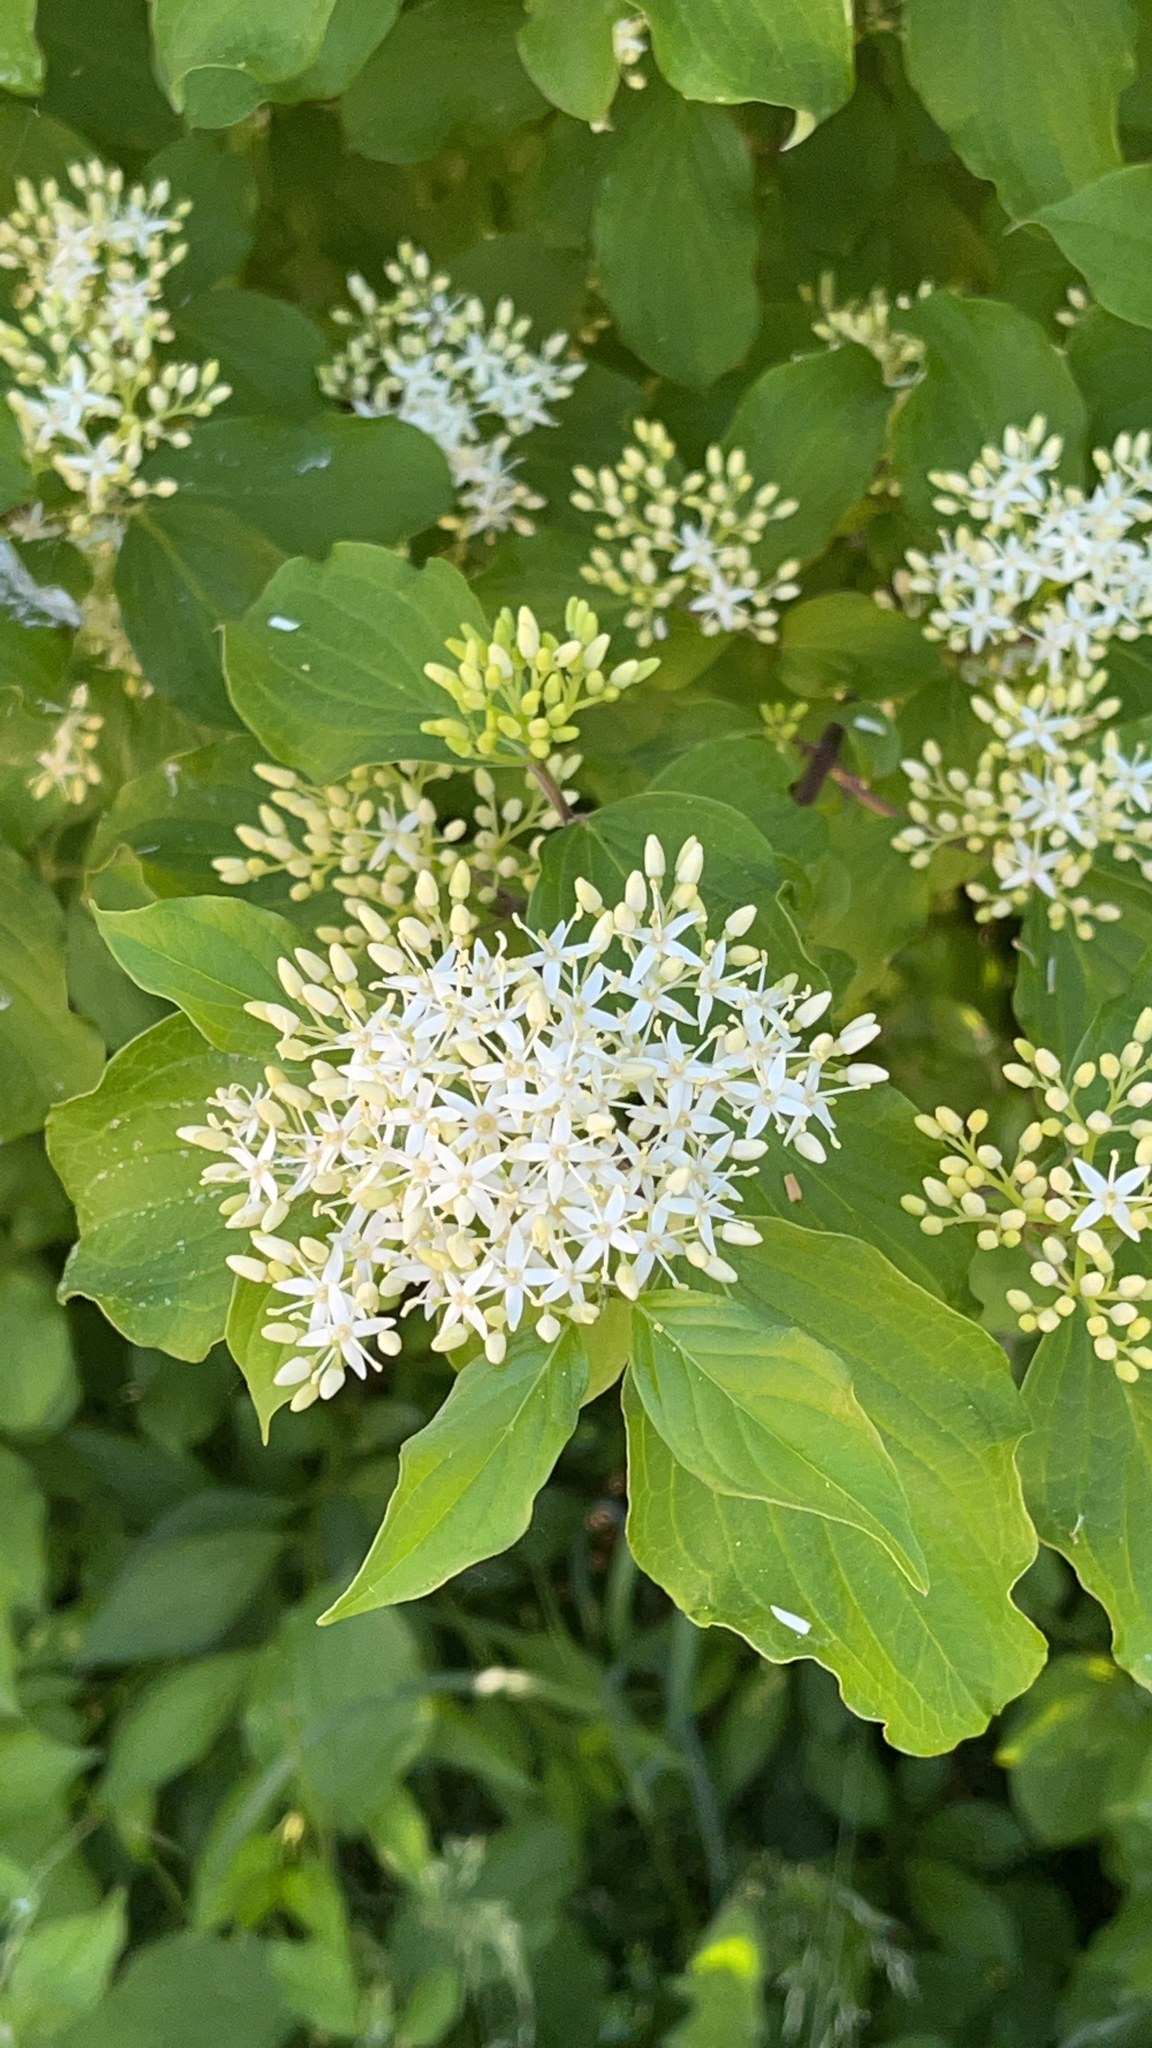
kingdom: Plantae
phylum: Tracheophyta
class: Magnoliopsida
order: Cornales
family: Cornaceae
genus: Cornus
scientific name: Cornus sanguinea
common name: Dogwood
